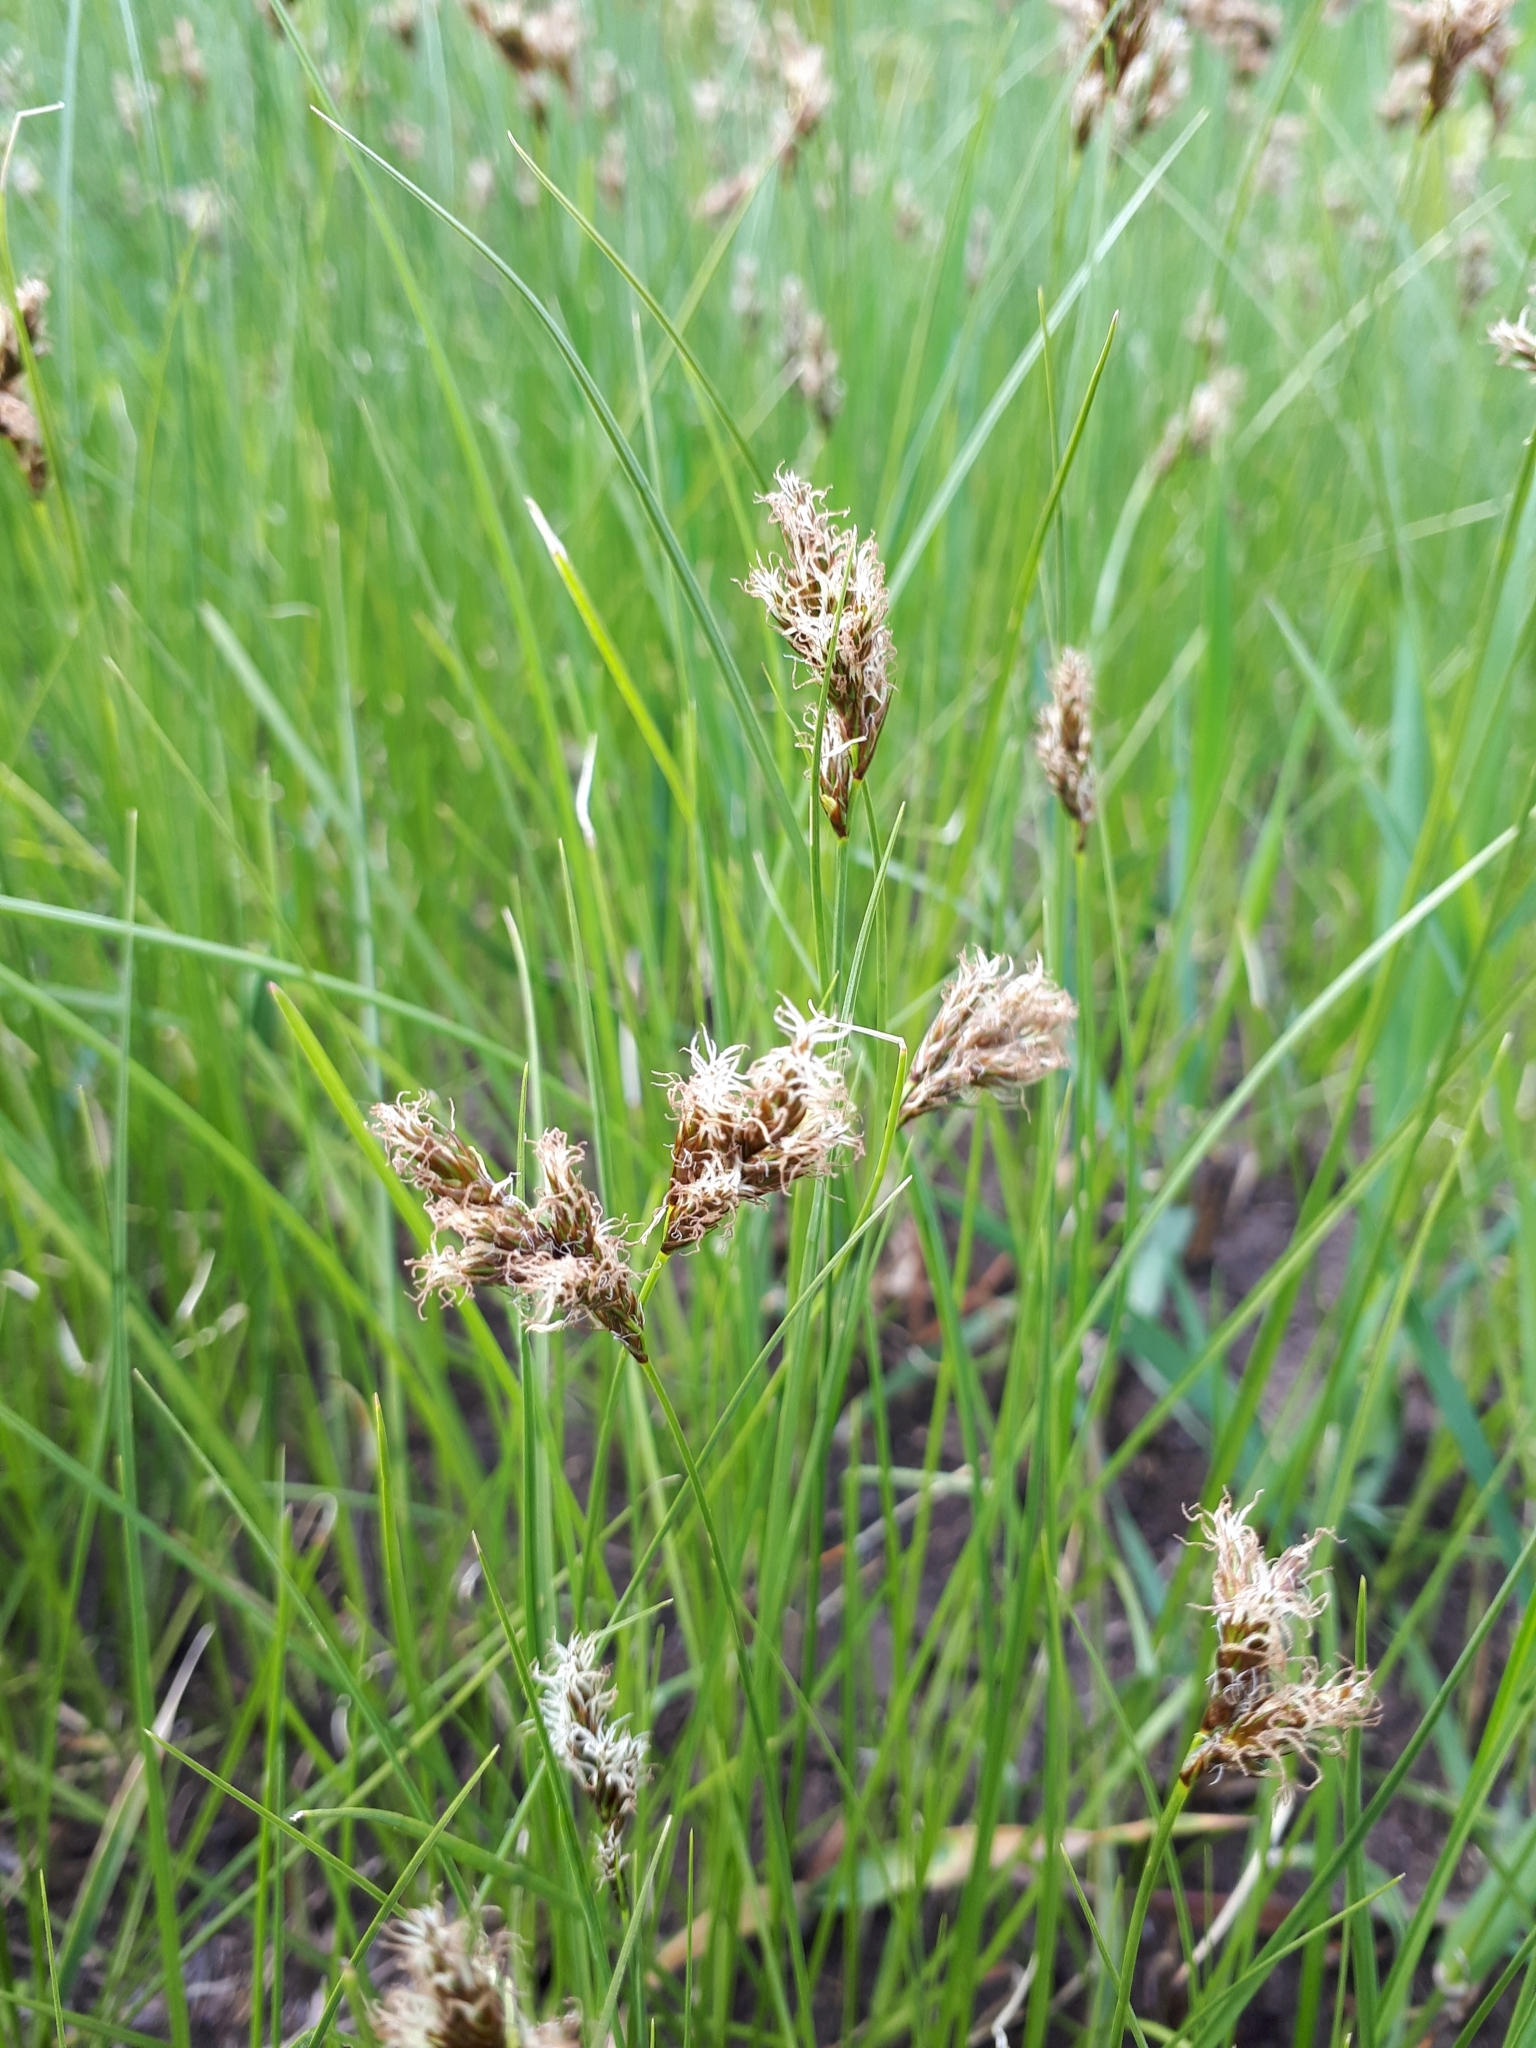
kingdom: Plantae
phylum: Tracheophyta
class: Liliopsida
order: Poales
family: Cyperaceae
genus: Carex
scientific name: Carex praecox
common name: Early sedge
